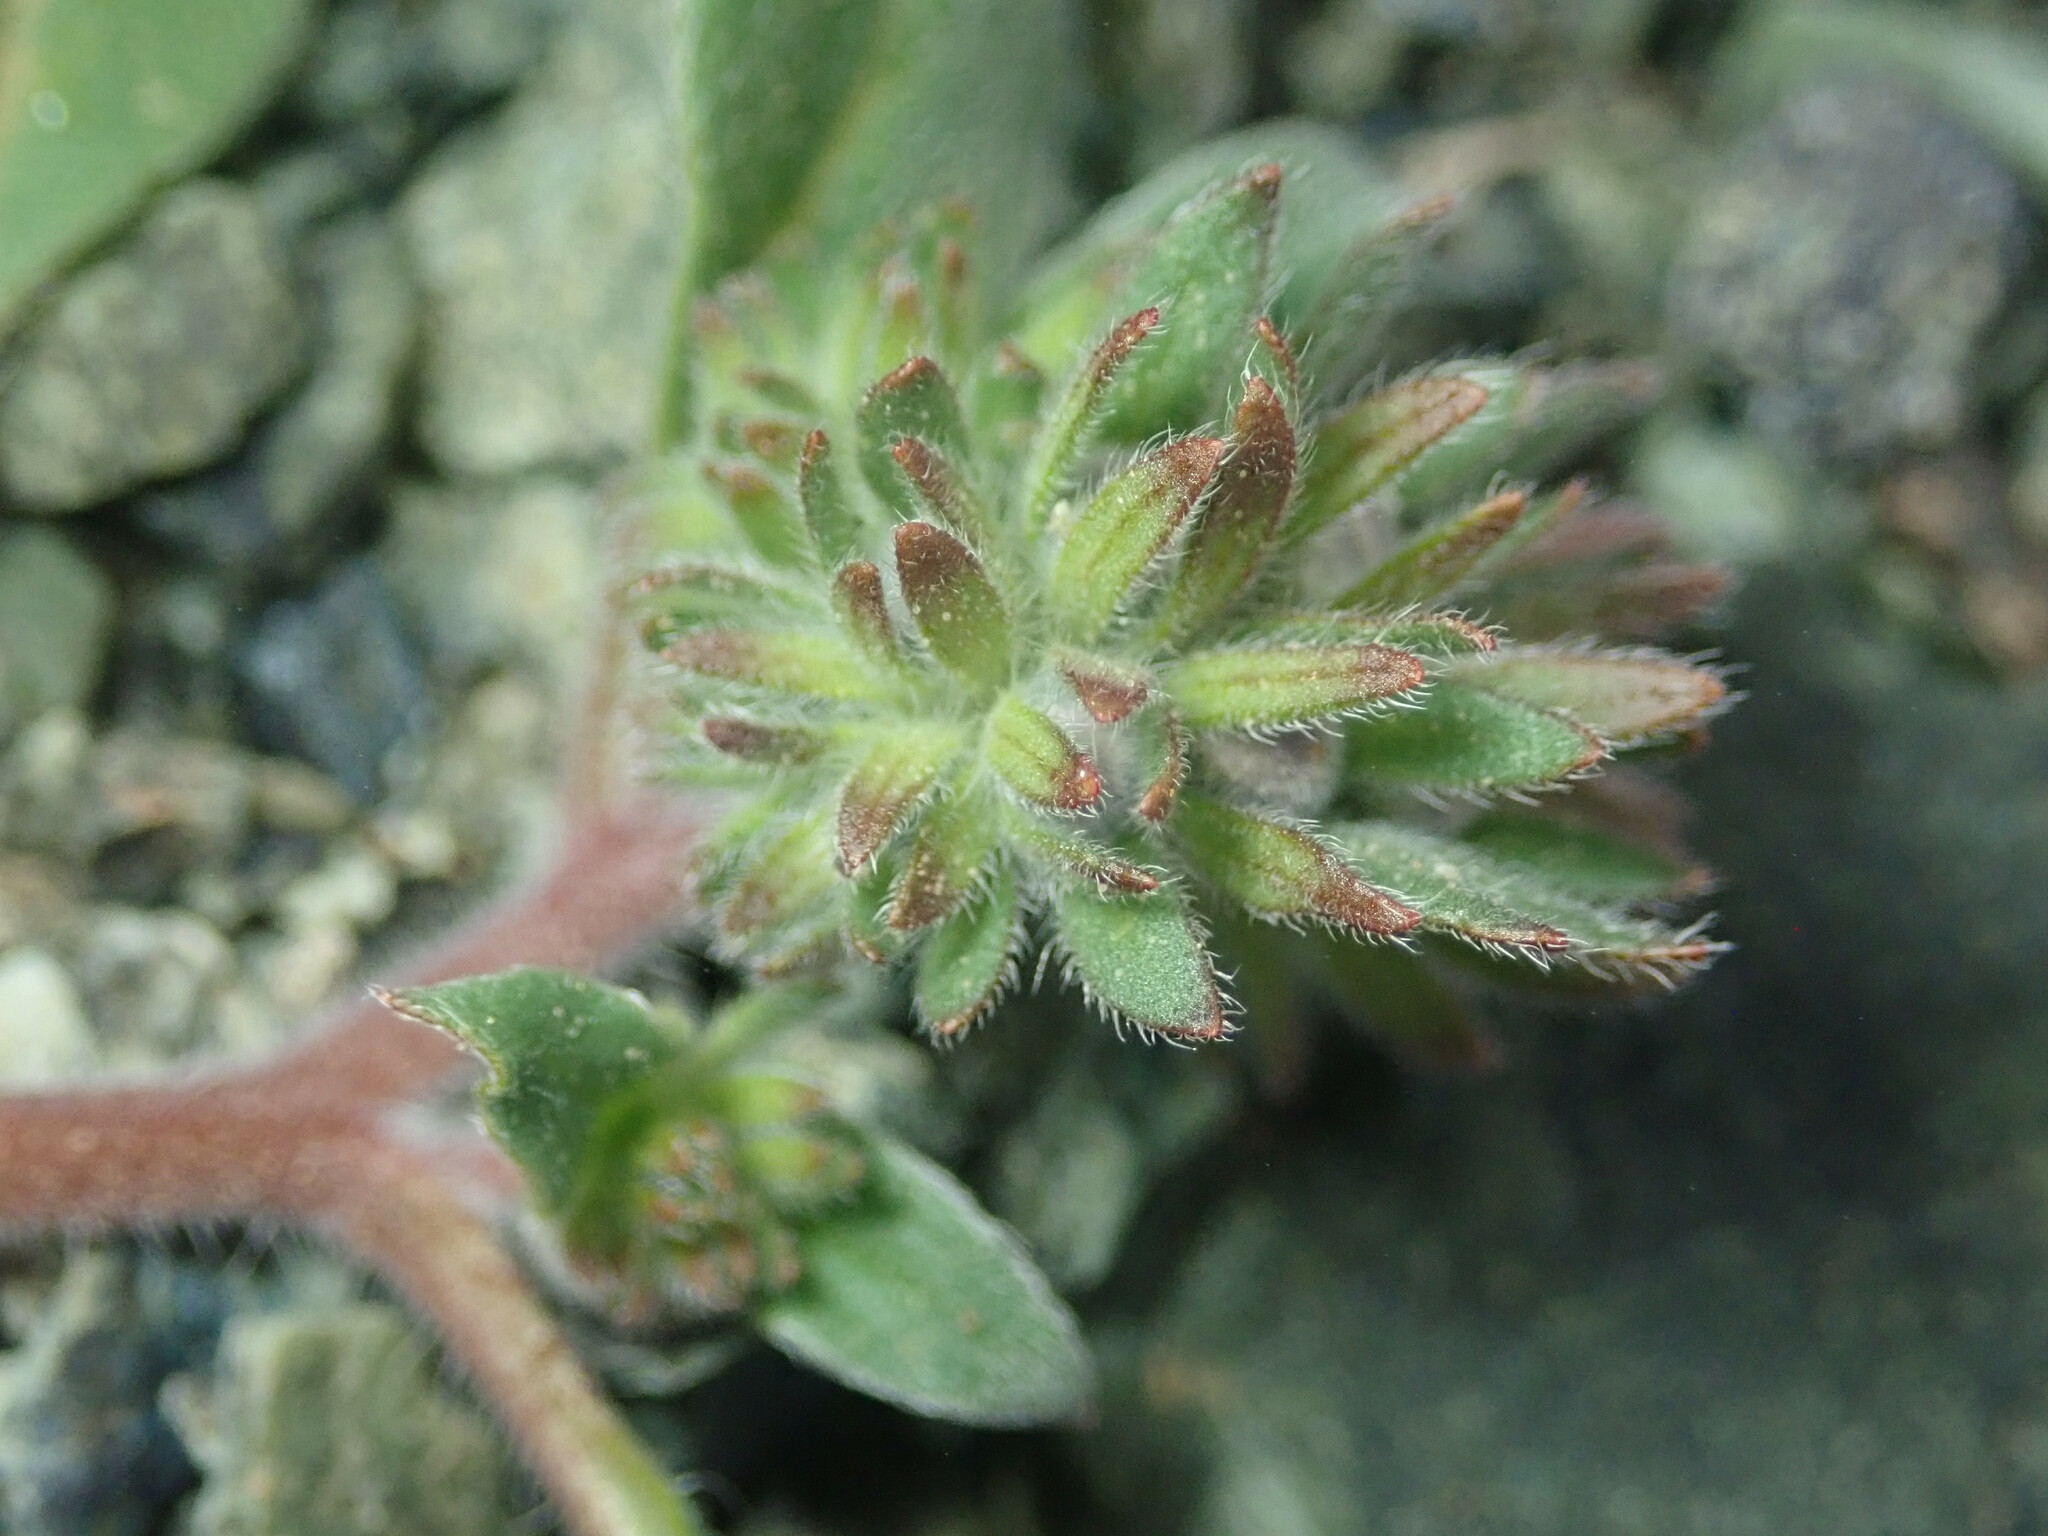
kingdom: Plantae
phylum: Tracheophyta
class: Magnoliopsida
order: Boraginales
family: Hydrophyllaceae
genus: Phacelia
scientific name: Phacelia divaricata
